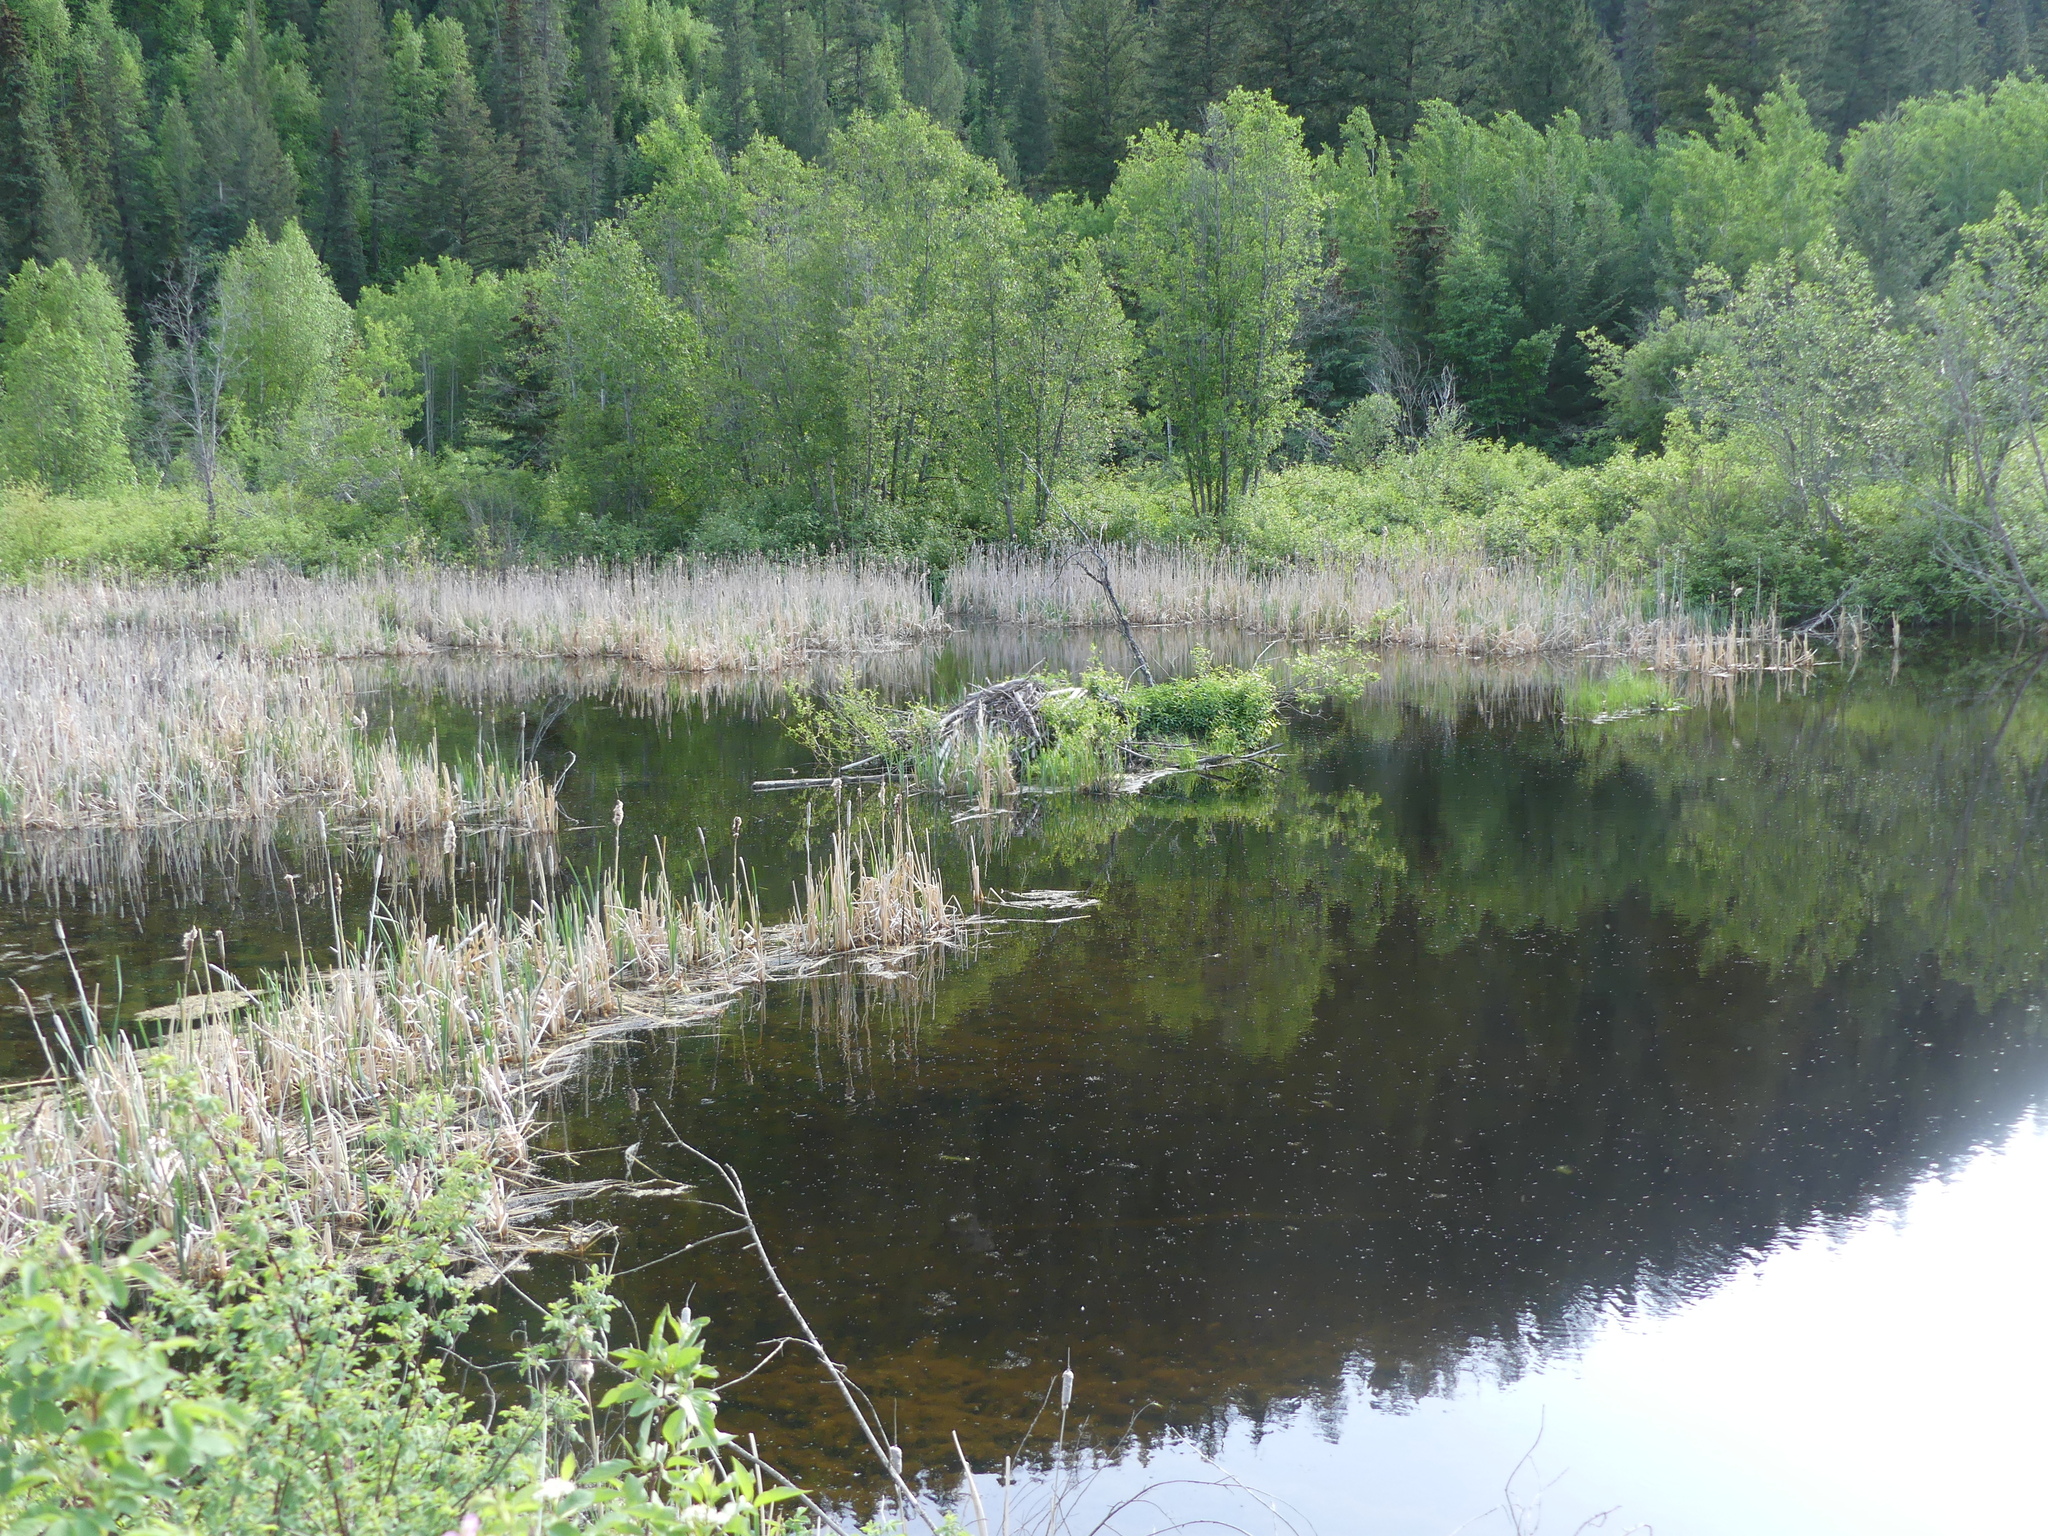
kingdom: Animalia
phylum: Chordata
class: Mammalia
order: Rodentia
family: Castoridae
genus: Castor
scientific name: Castor canadensis
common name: American beaver
